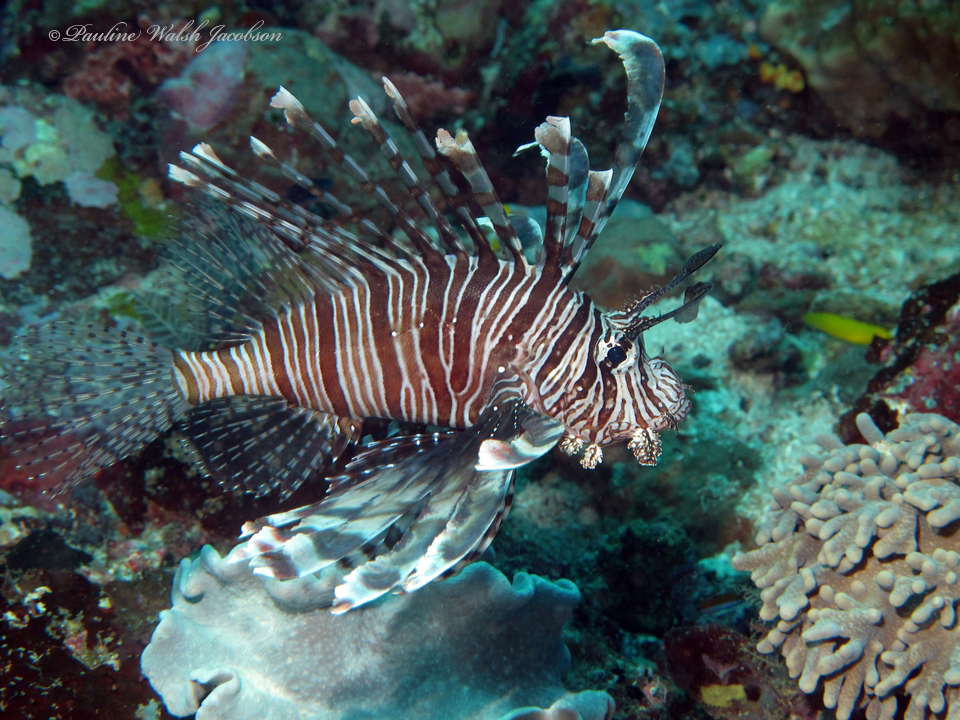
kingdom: Animalia
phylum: Chordata
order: Scorpaeniformes
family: Scorpaenidae
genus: Pterois
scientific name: Pterois volitans
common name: Lionfish
